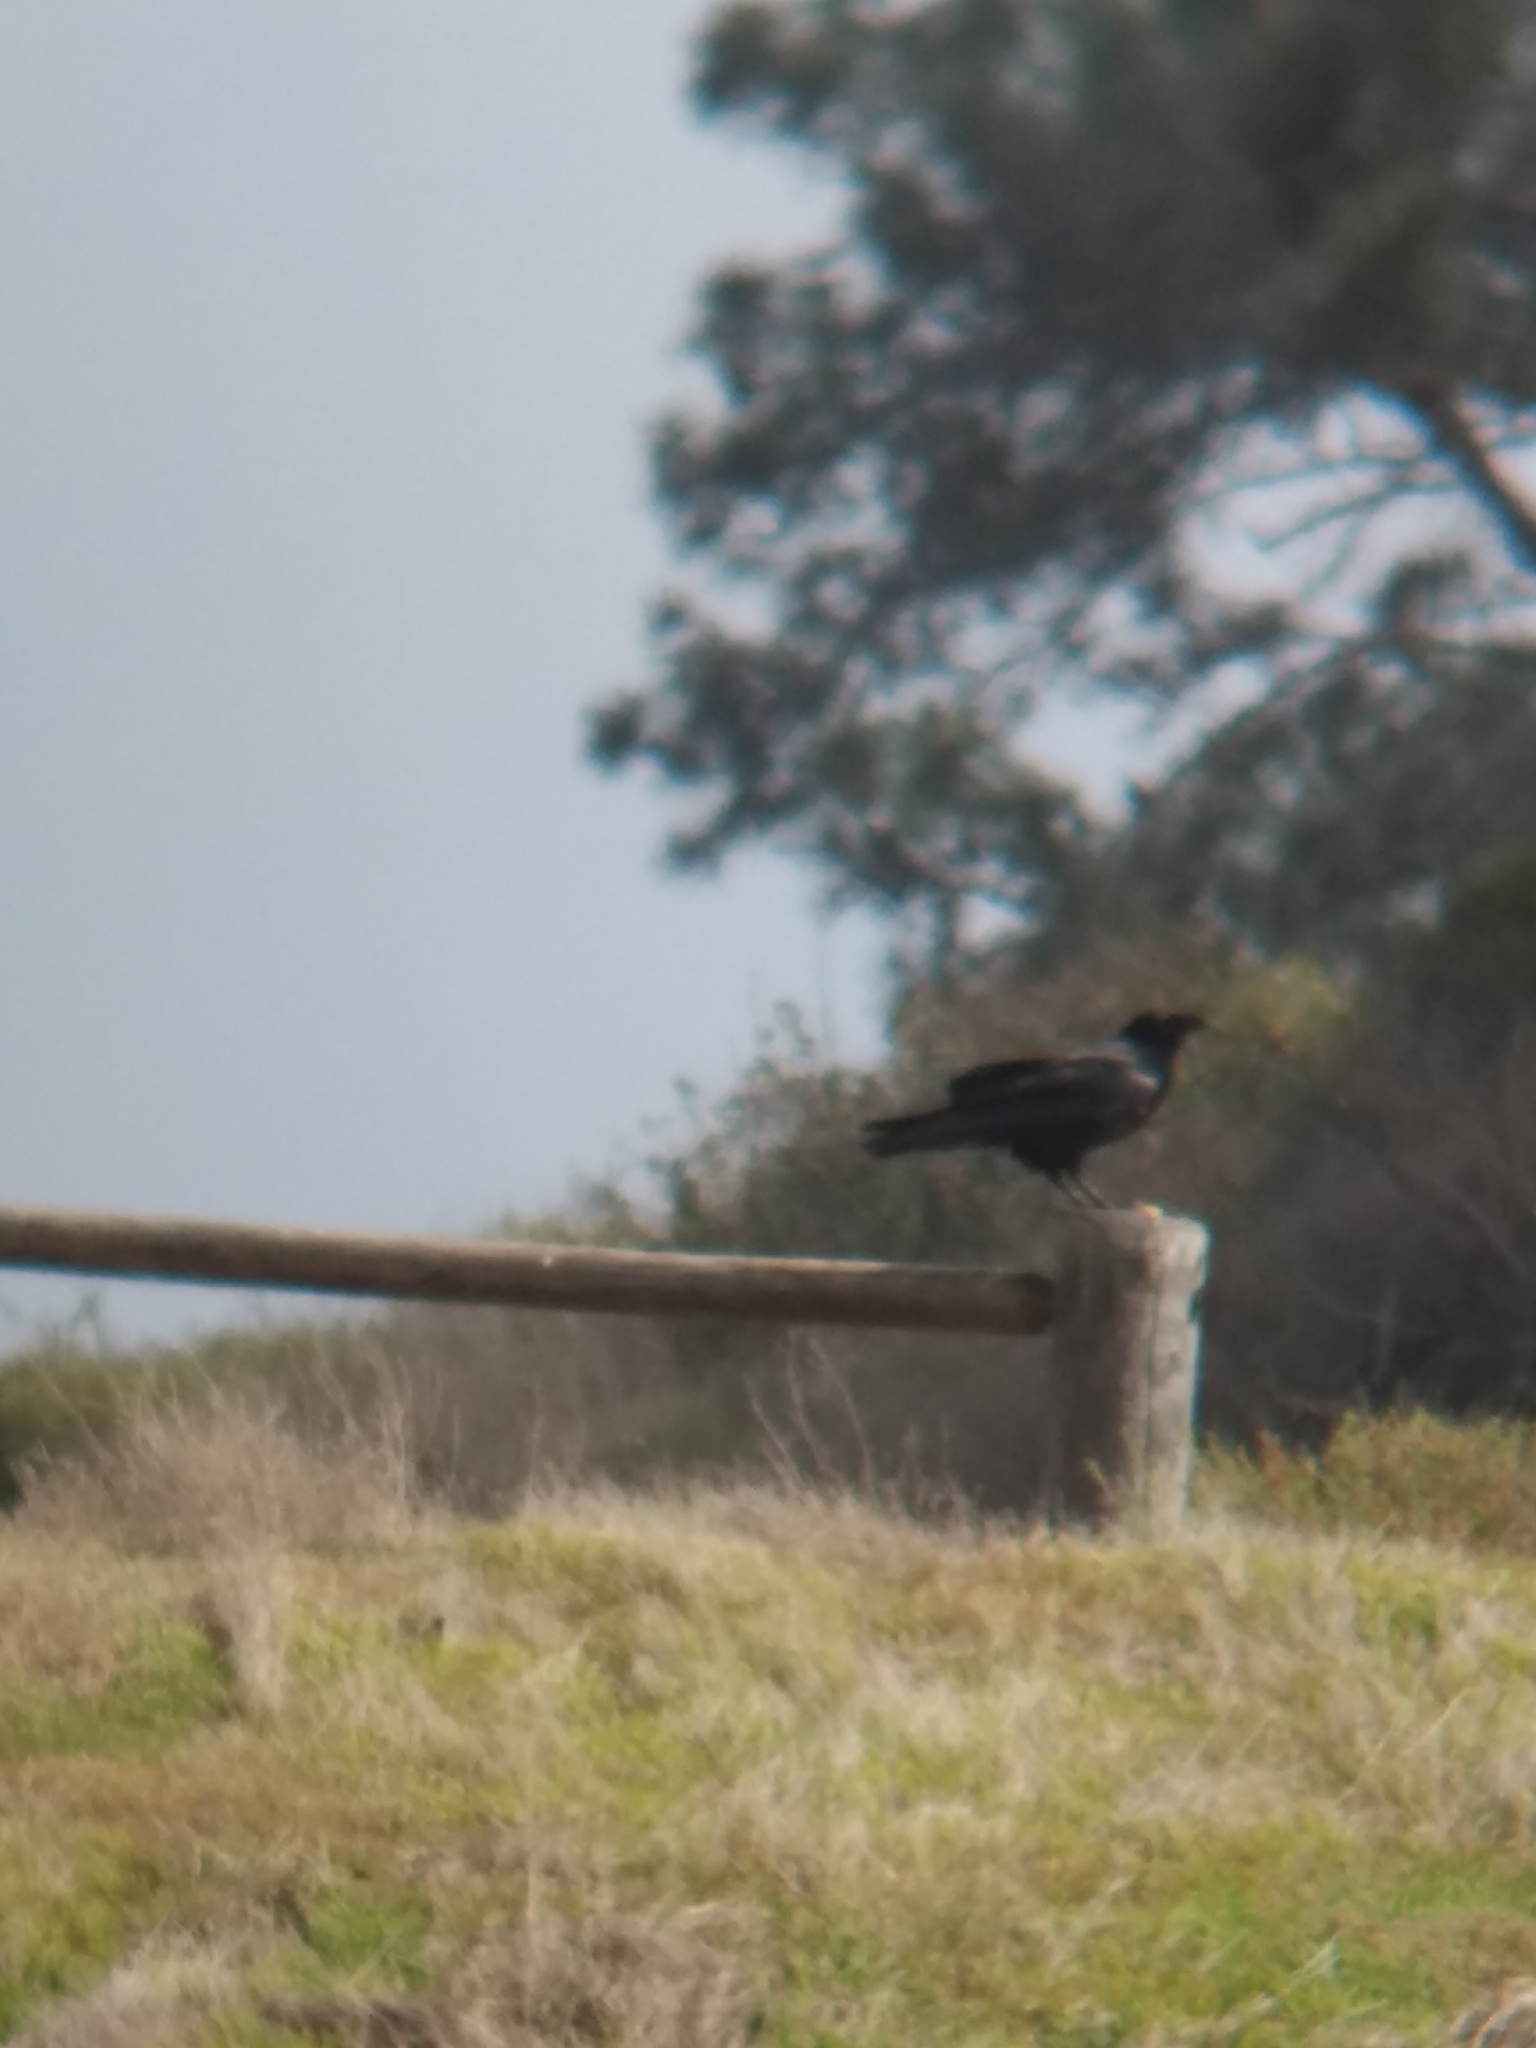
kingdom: Animalia
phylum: Chordata
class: Aves
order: Passeriformes
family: Corvidae
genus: Corvus
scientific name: Corvus corax
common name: Common raven
